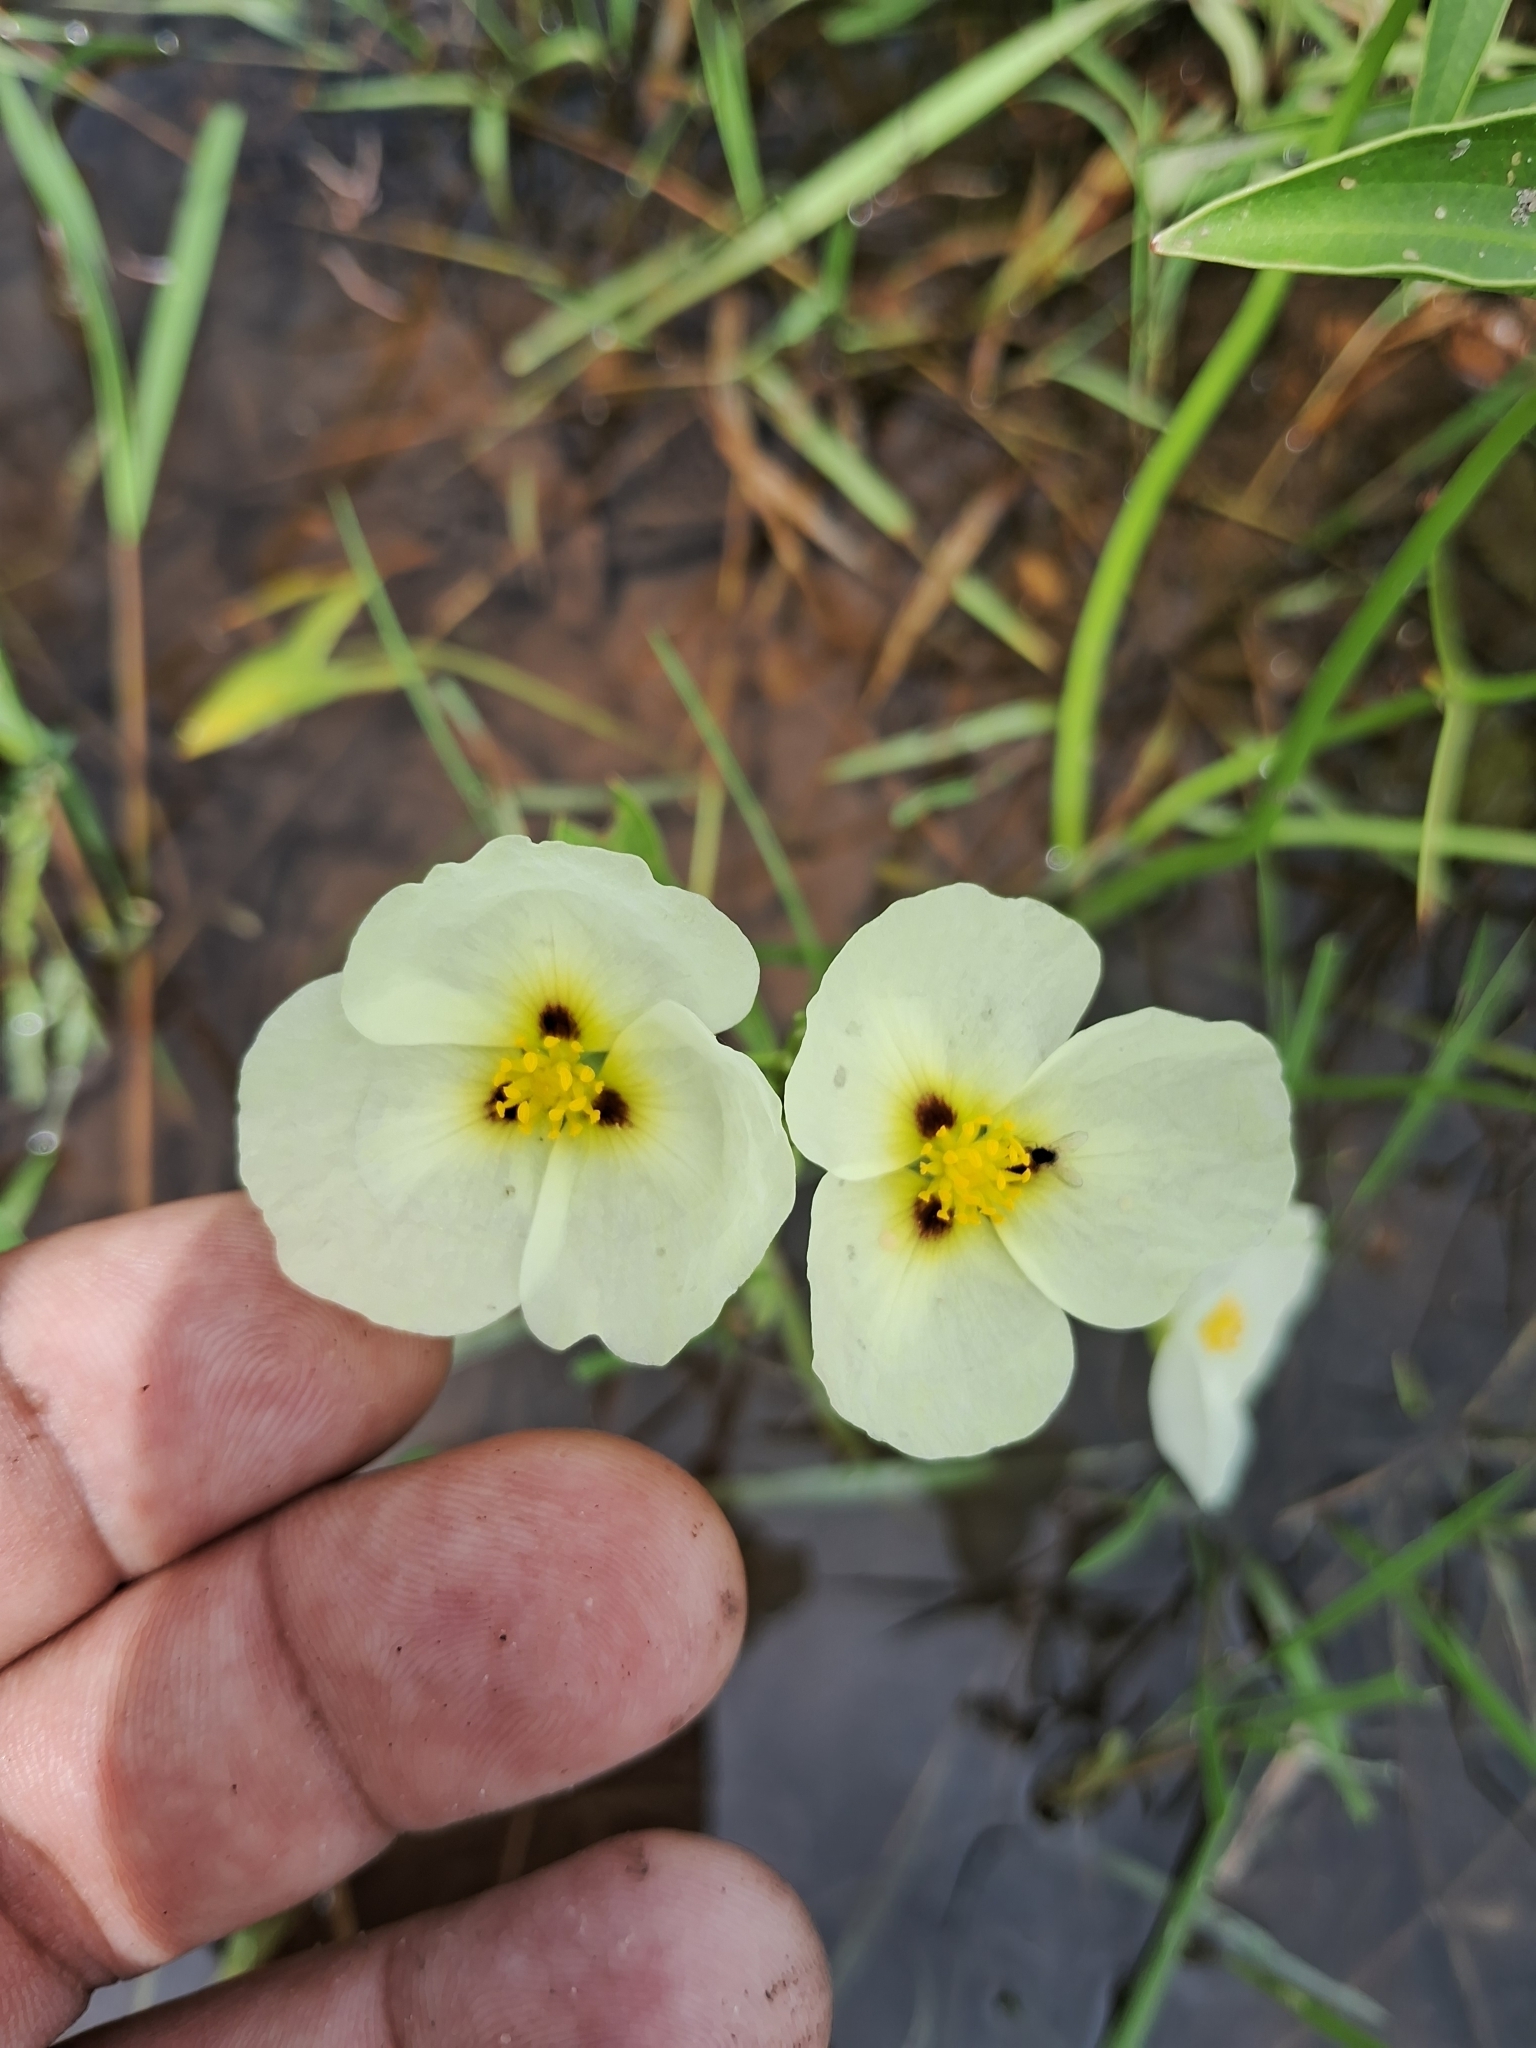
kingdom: Plantae
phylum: Tracheophyta
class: Liliopsida
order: Alismatales
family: Alismataceae
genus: Sagittaria
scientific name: Sagittaria montevidensis
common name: Giant arrowhead
